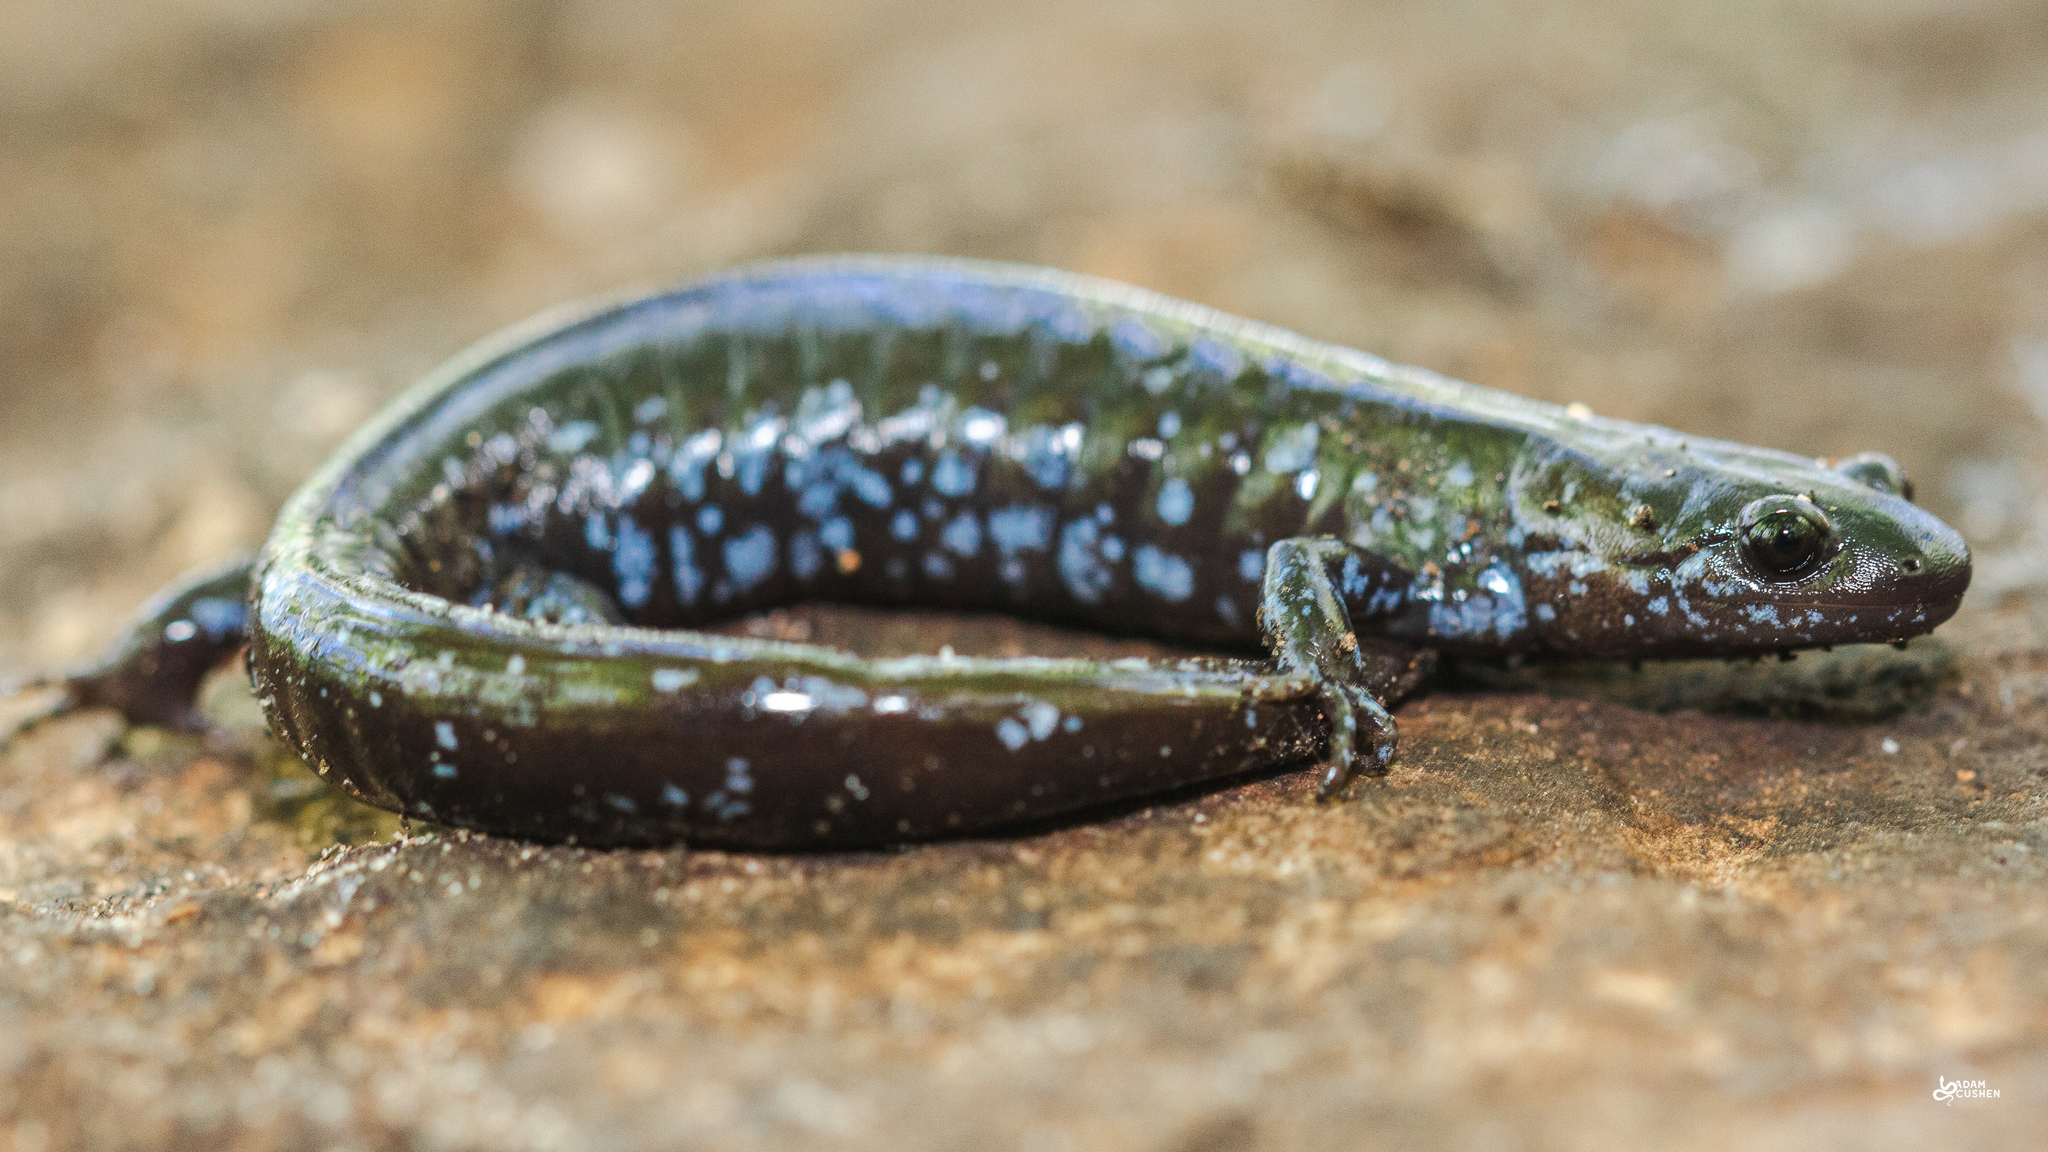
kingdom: Animalia
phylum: Chordata
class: Amphibia
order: Caudata
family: Ambystomatidae
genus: Ambystoma
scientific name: Ambystoma laterale
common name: Blue-spotted salamander
